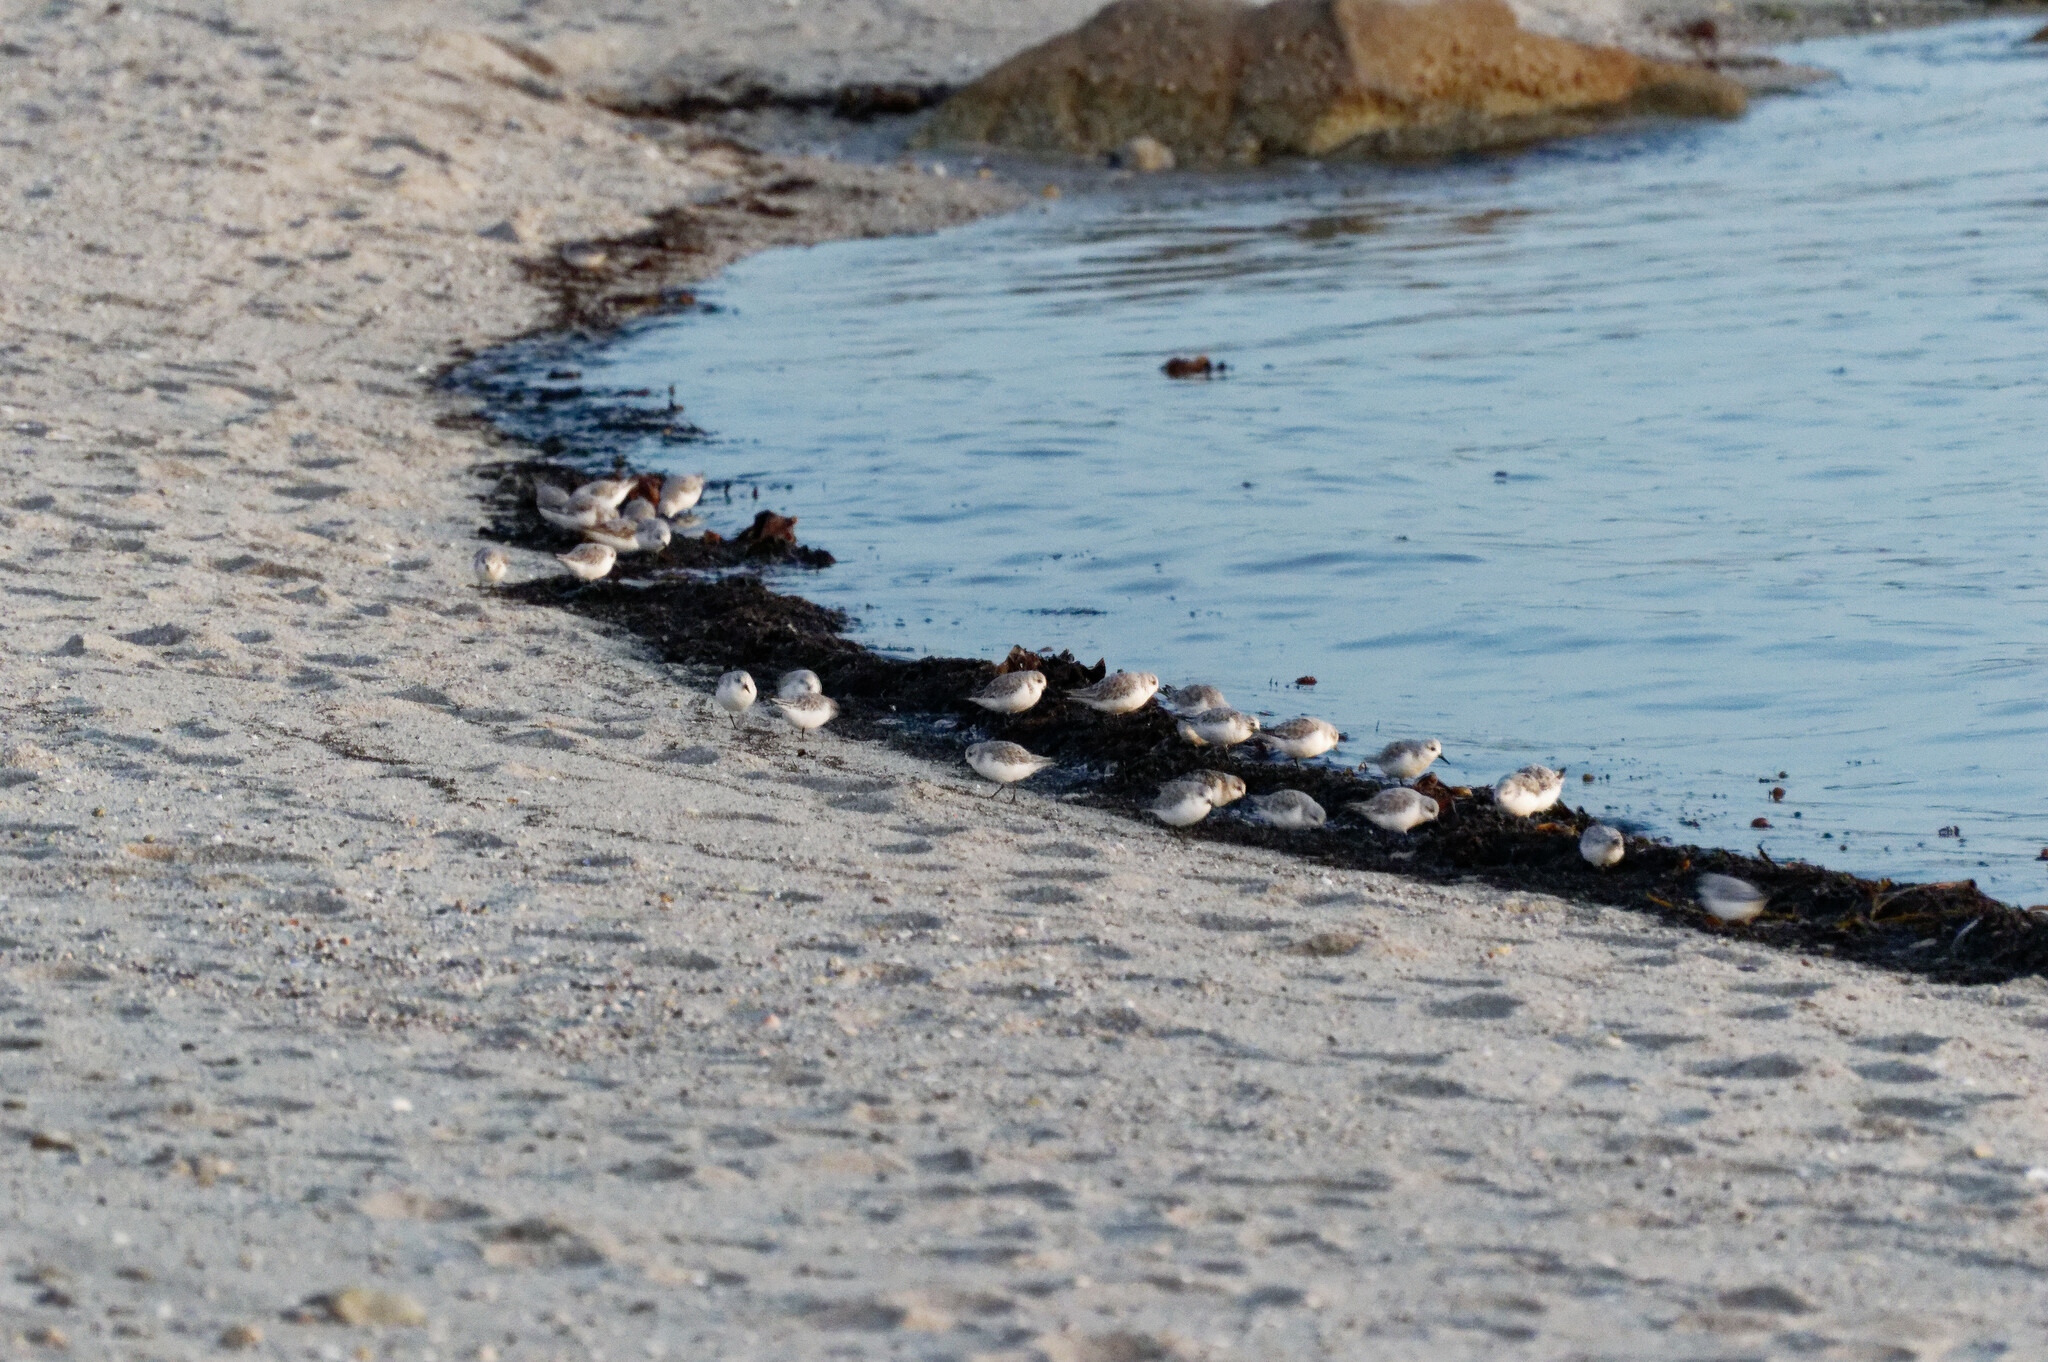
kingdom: Animalia
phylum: Chordata
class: Aves
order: Charadriiformes
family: Scolopacidae
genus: Calidris
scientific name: Calidris alba
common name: Sanderling
